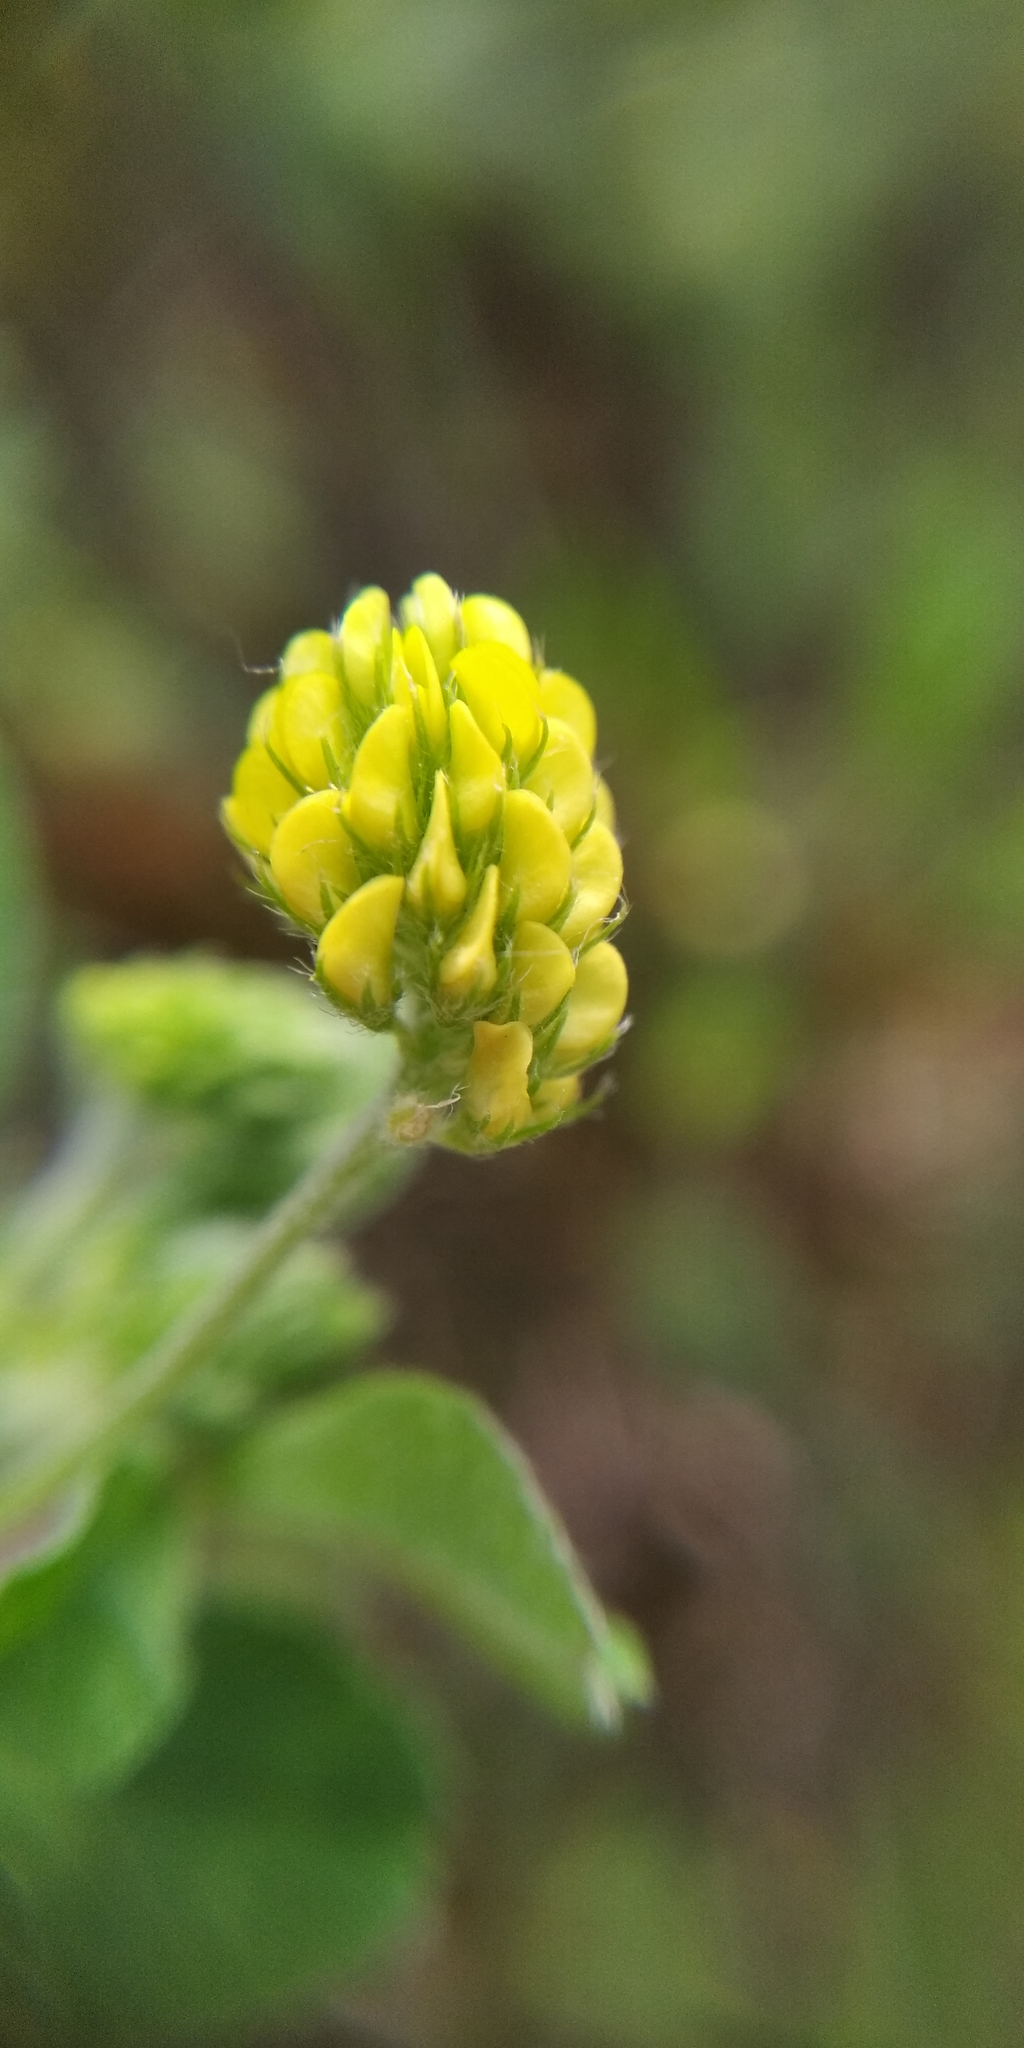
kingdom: Plantae
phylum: Tracheophyta
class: Magnoliopsida
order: Fabales
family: Fabaceae
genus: Medicago
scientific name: Medicago lupulina
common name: Black medick
